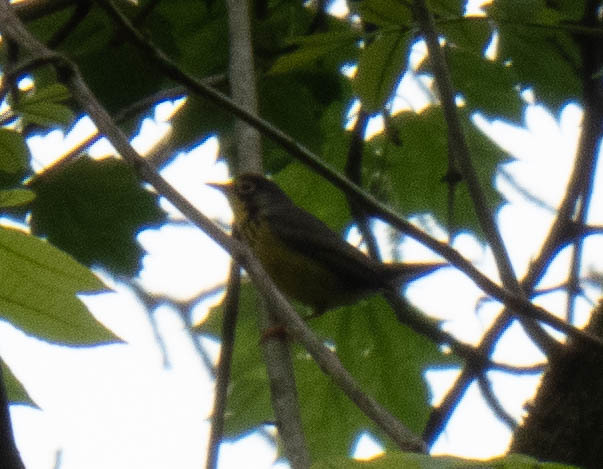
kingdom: Animalia
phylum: Chordata
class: Aves
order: Passeriformes
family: Parulidae
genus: Cardellina
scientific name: Cardellina canadensis
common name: Canada warbler
